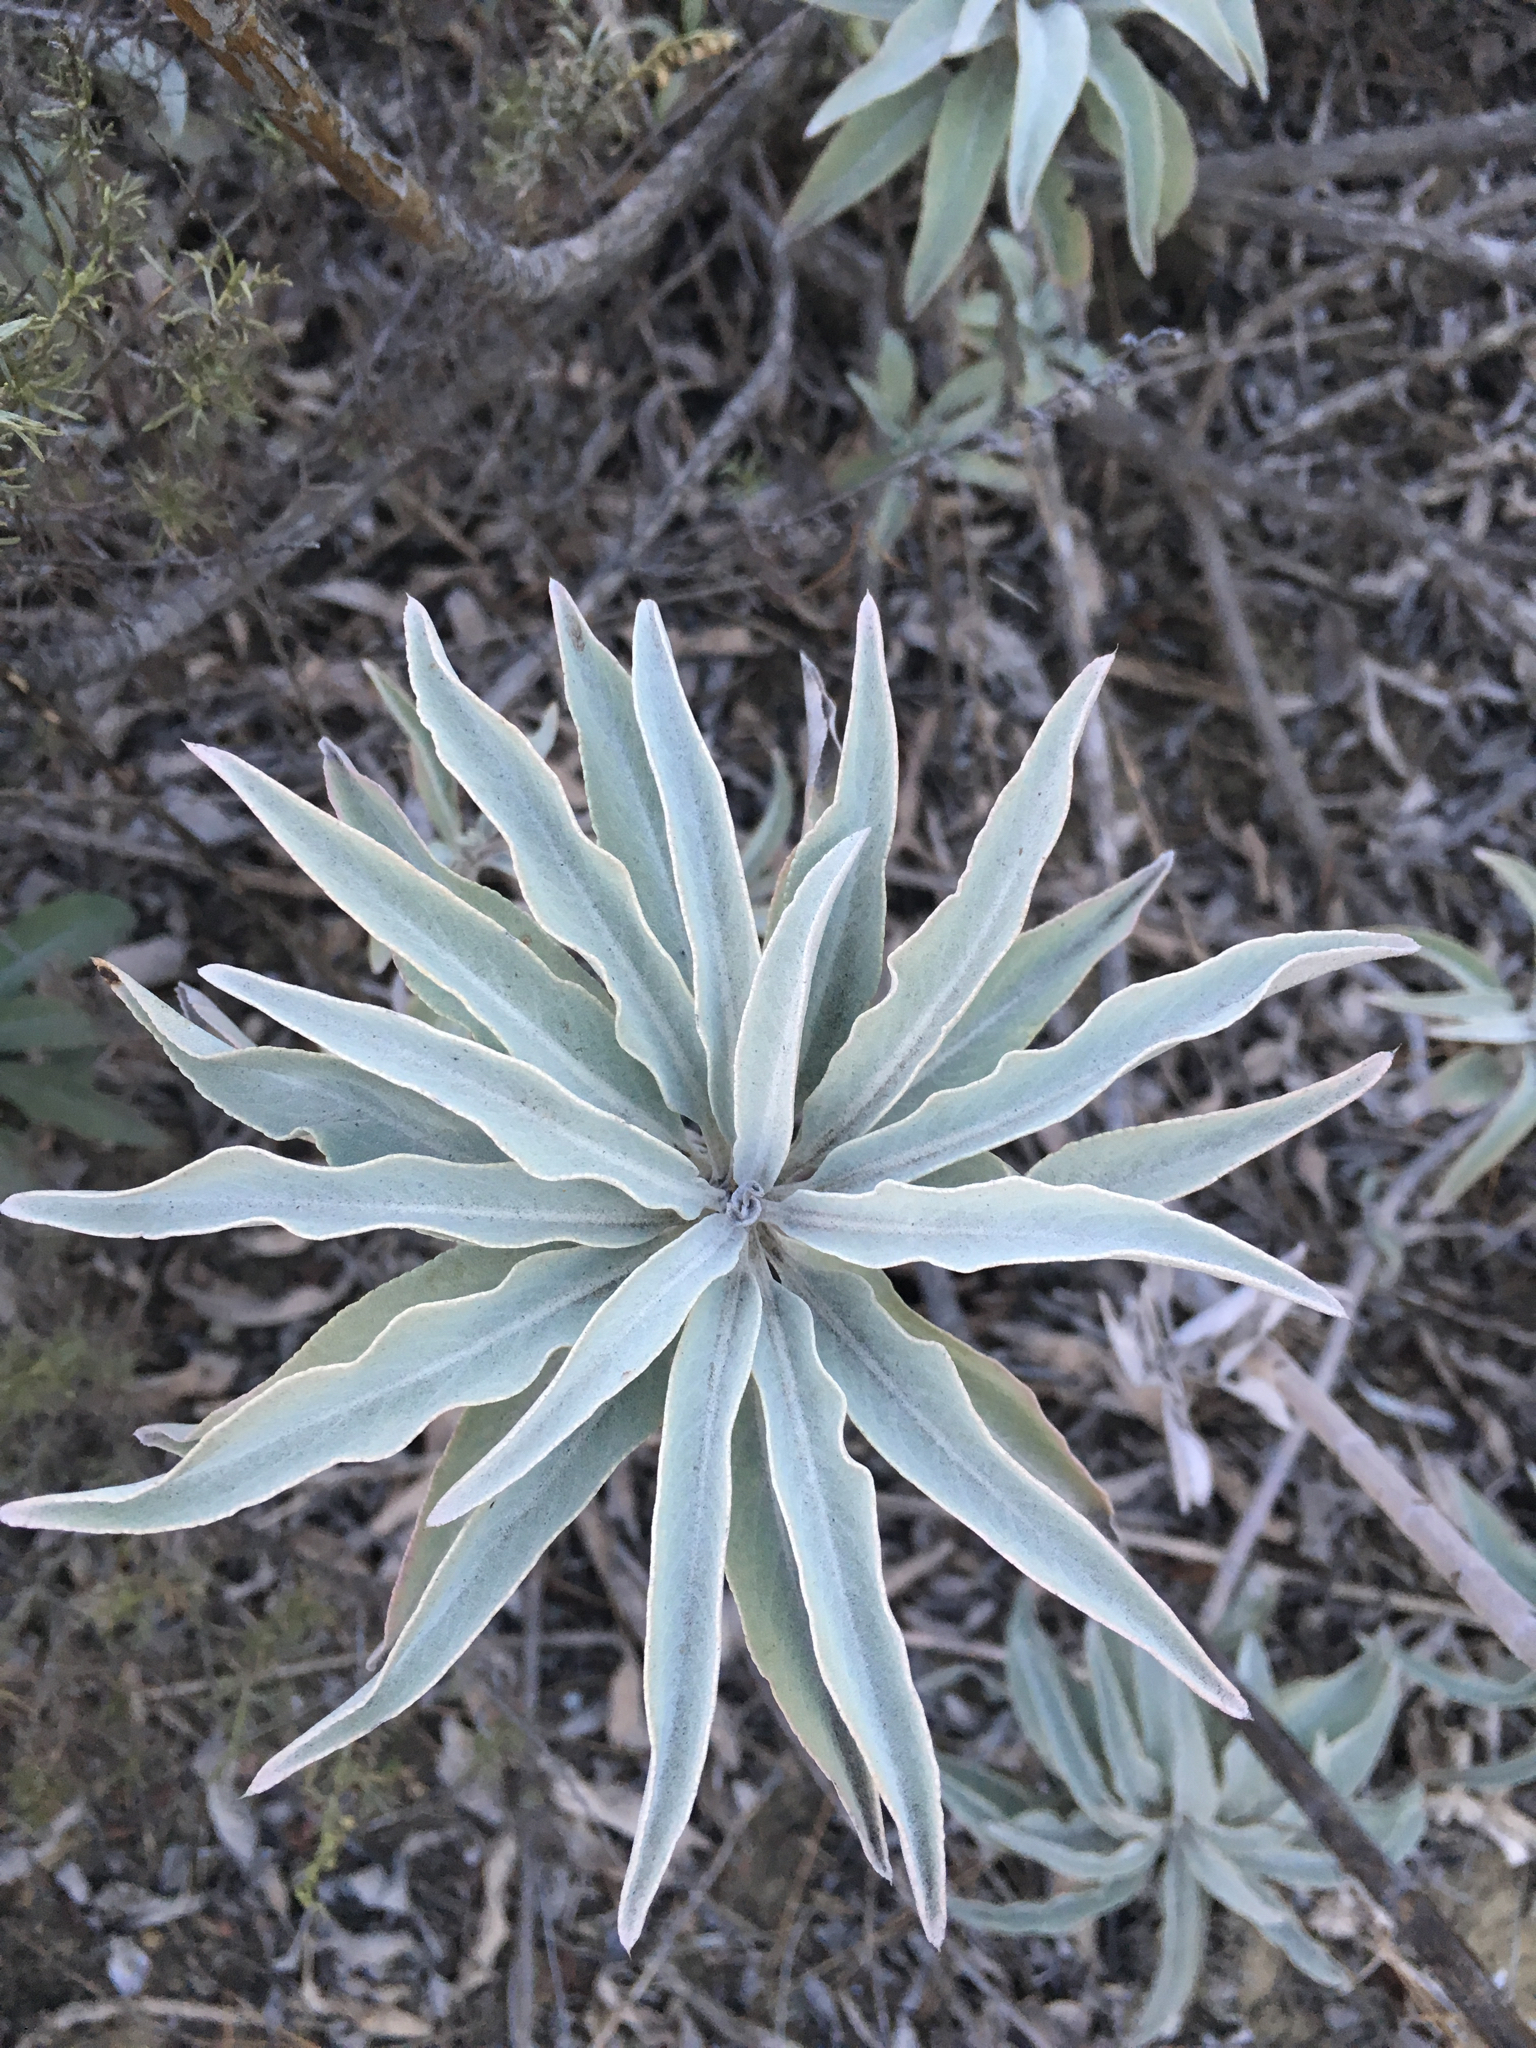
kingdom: Plantae
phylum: Tracheophyta
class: Magnoliopsida
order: Lamiales
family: Lamiaceae
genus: Salvia
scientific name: Salvia apiana
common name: White sage
